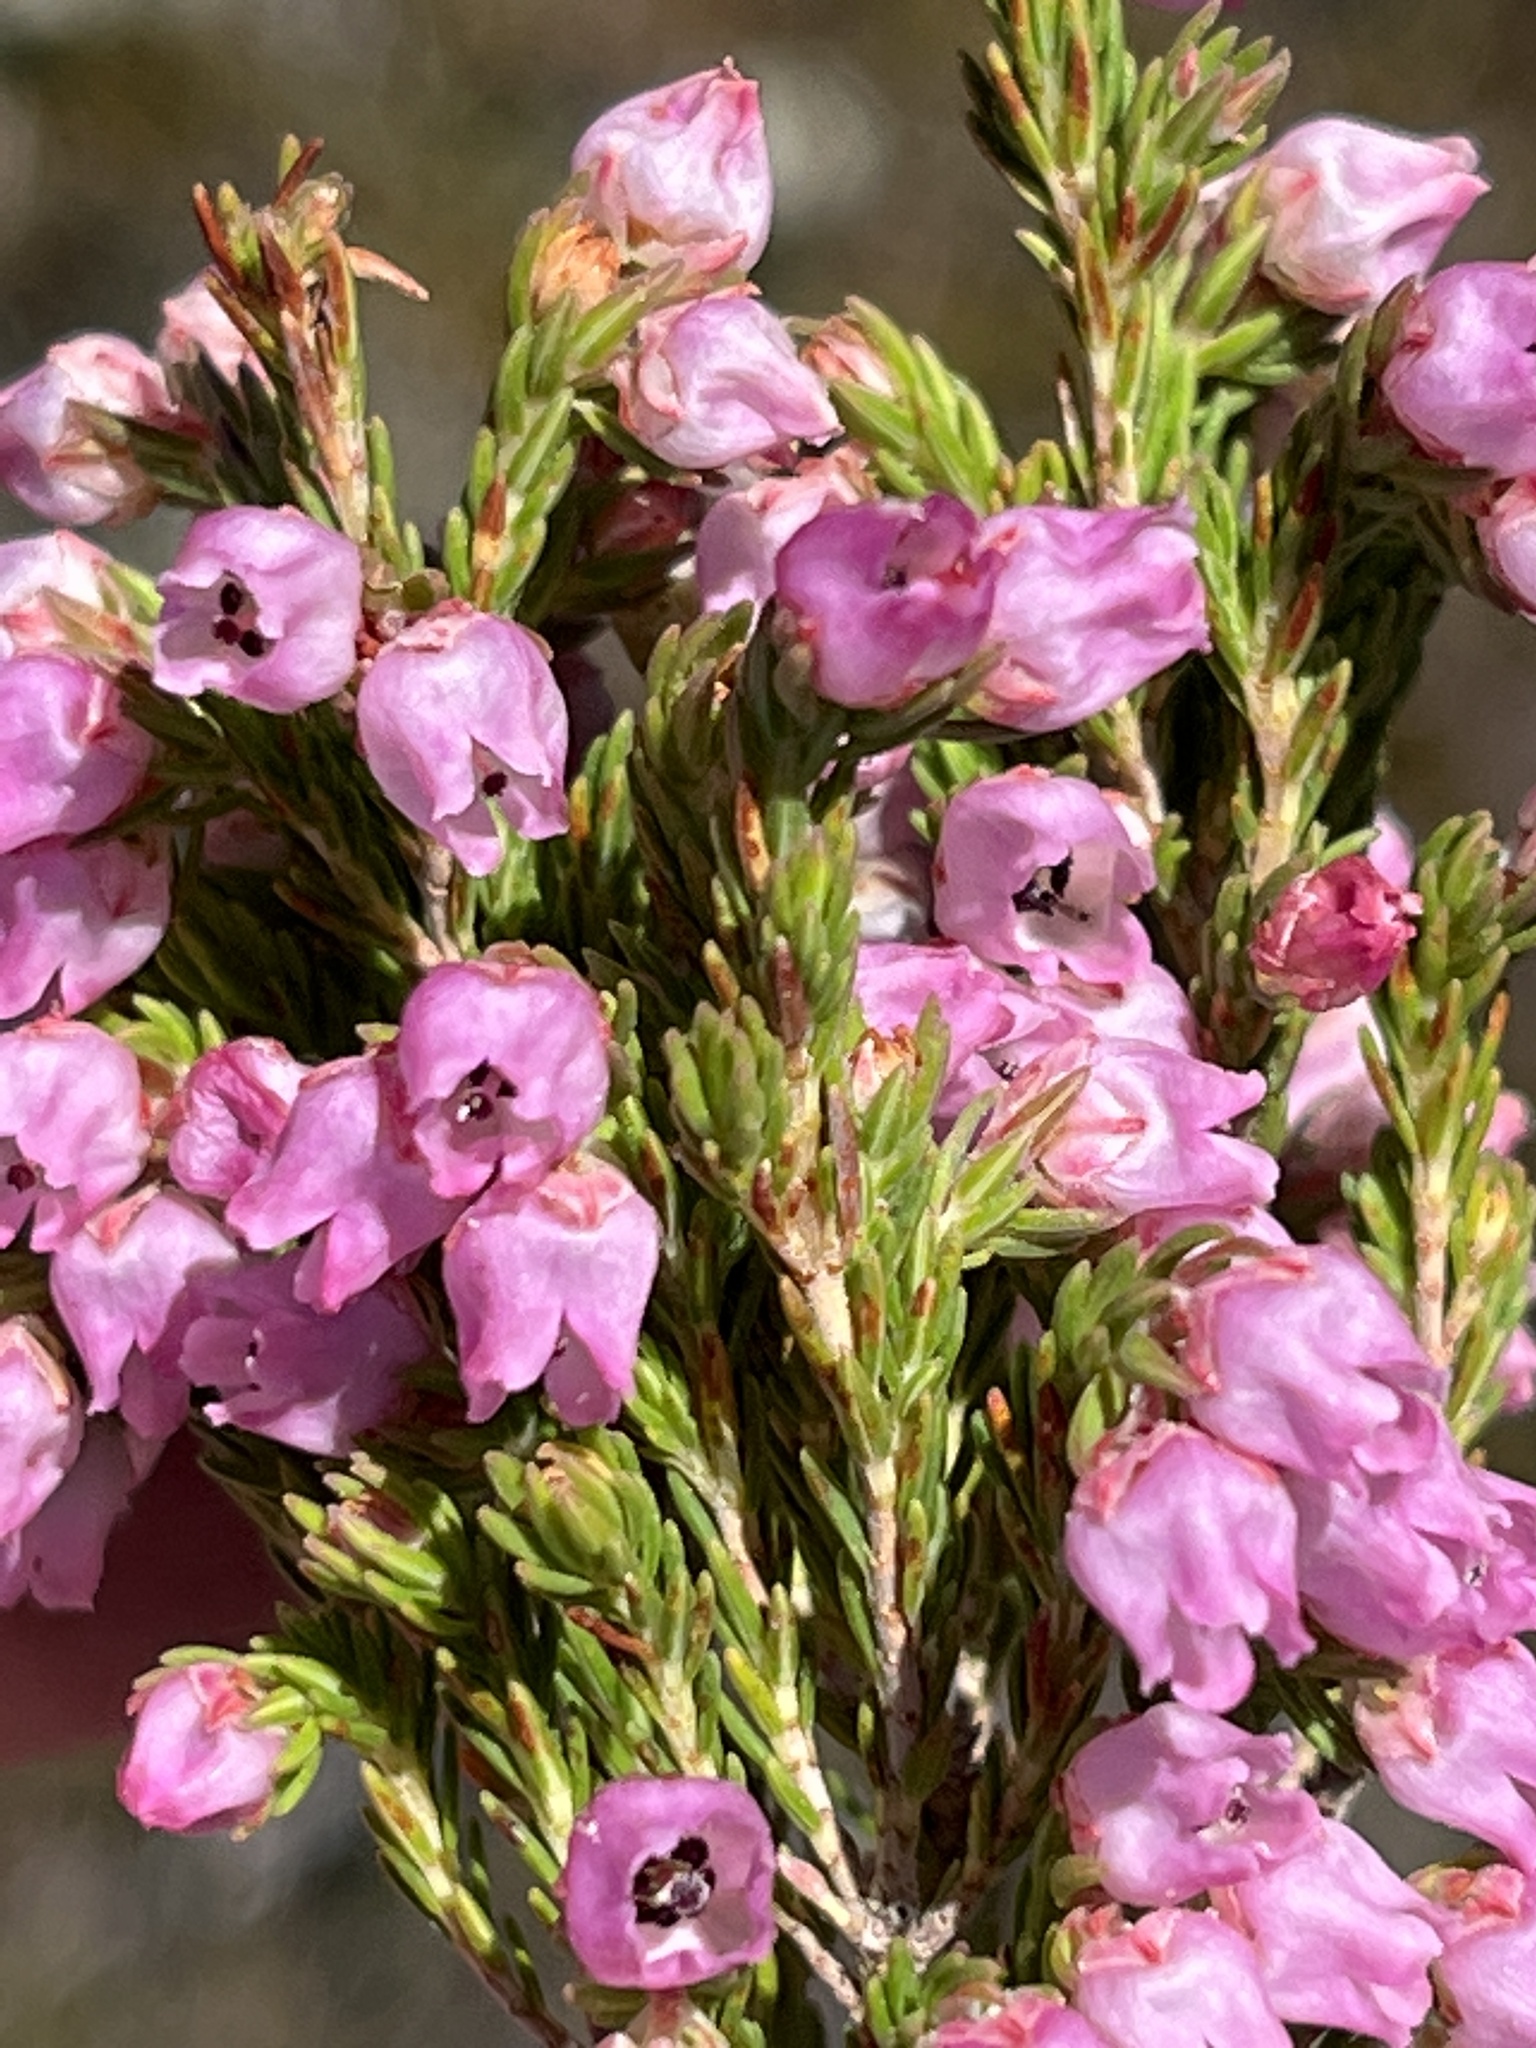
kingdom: Plantae
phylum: Tracheophyta
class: Magnoliopsida
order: Ericales
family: Ericaceae
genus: Erica
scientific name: Erica condensata
